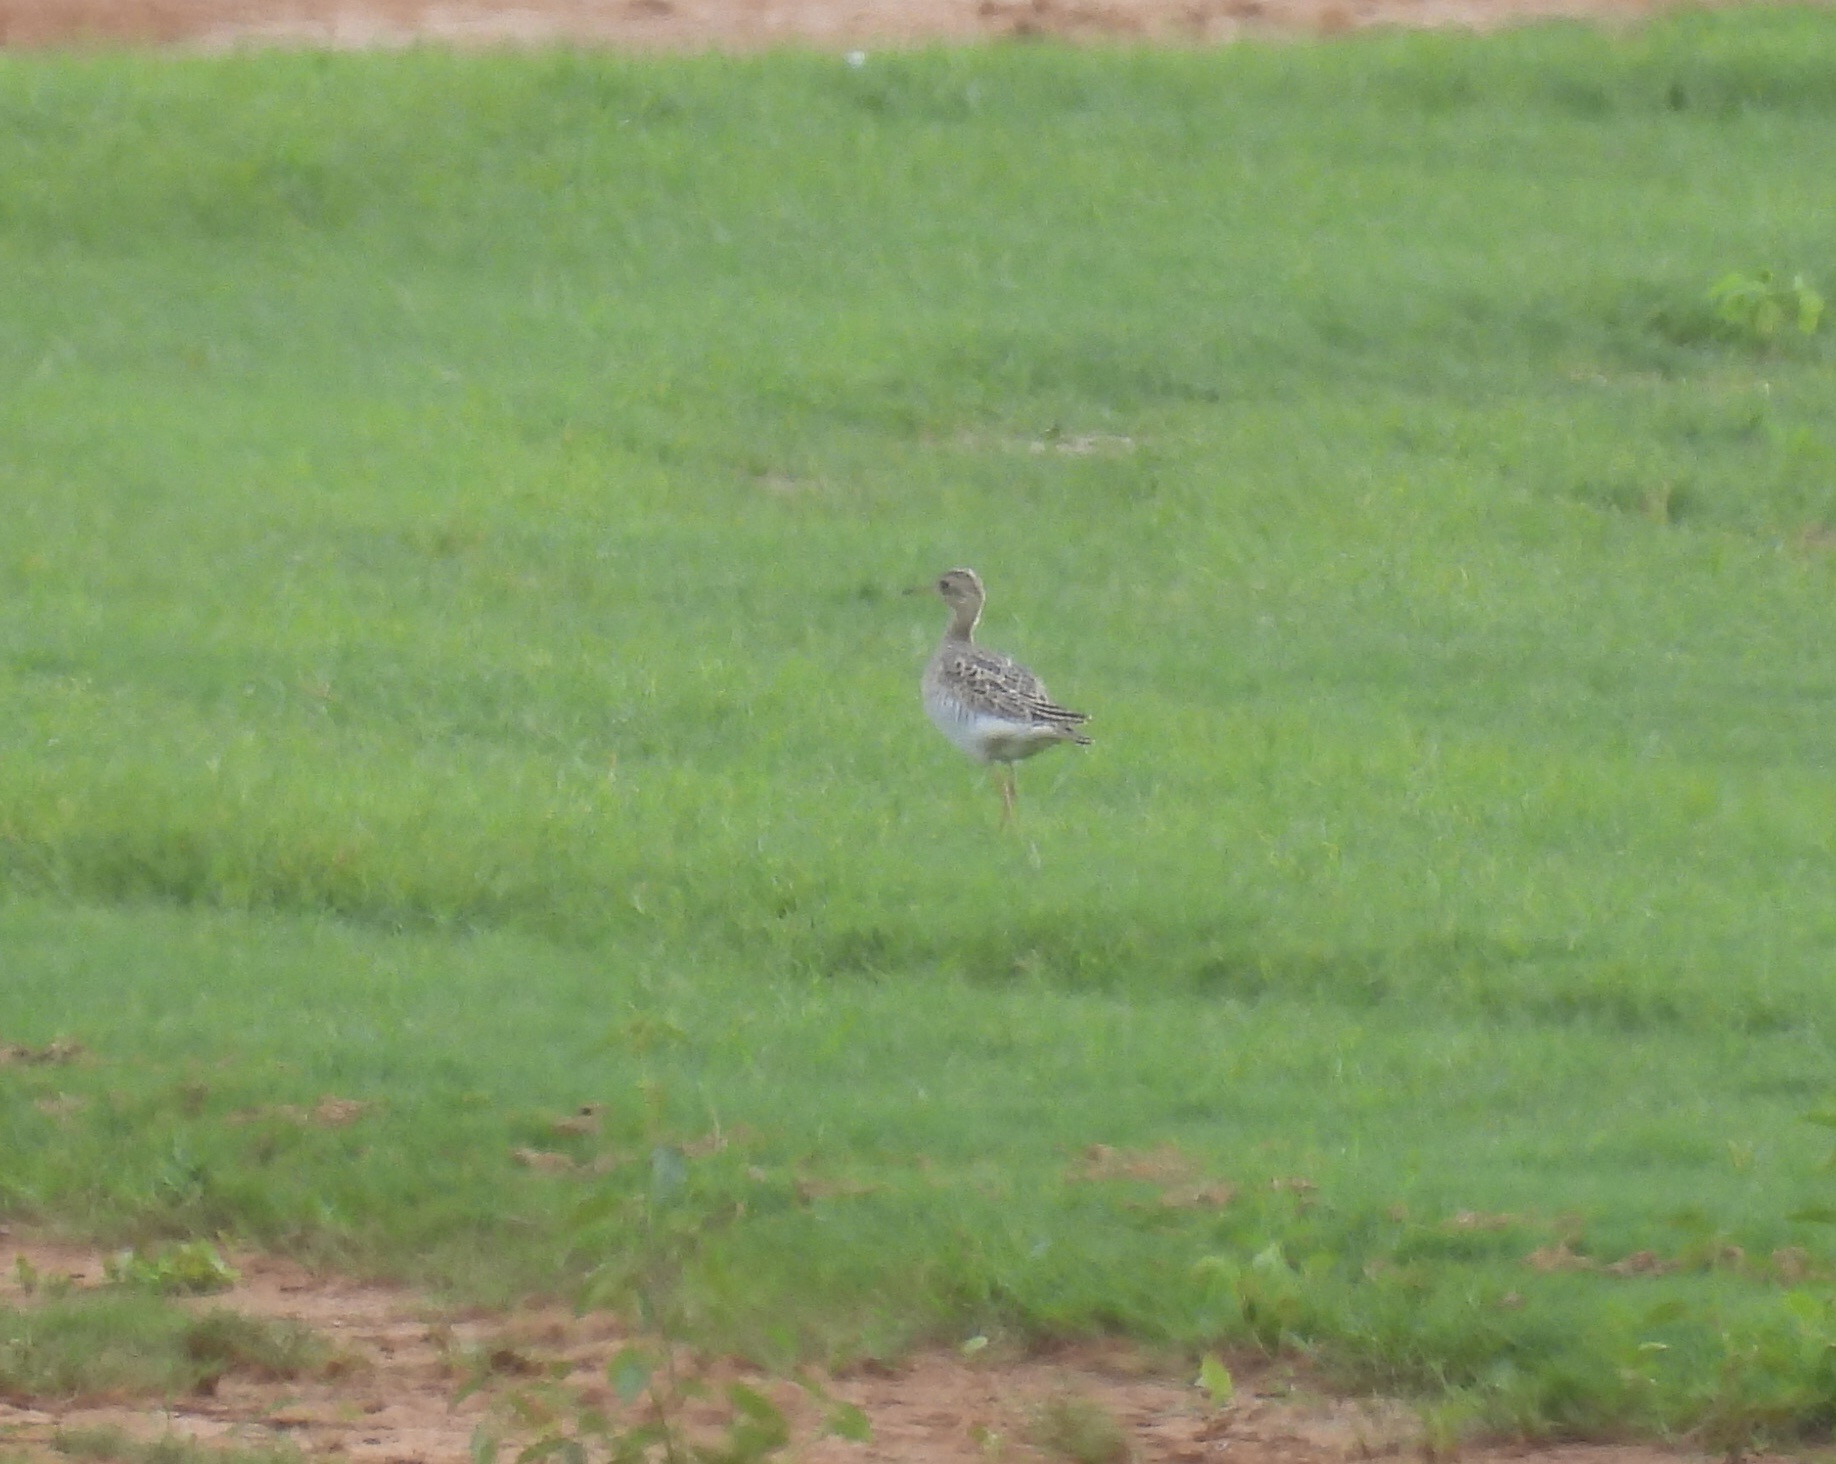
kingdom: Animalia
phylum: Chordata
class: Aves
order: Charadriiformes
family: Scolopacidae
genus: Bartramia
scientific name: Bartramia longicauda
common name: Upland sandpiper
